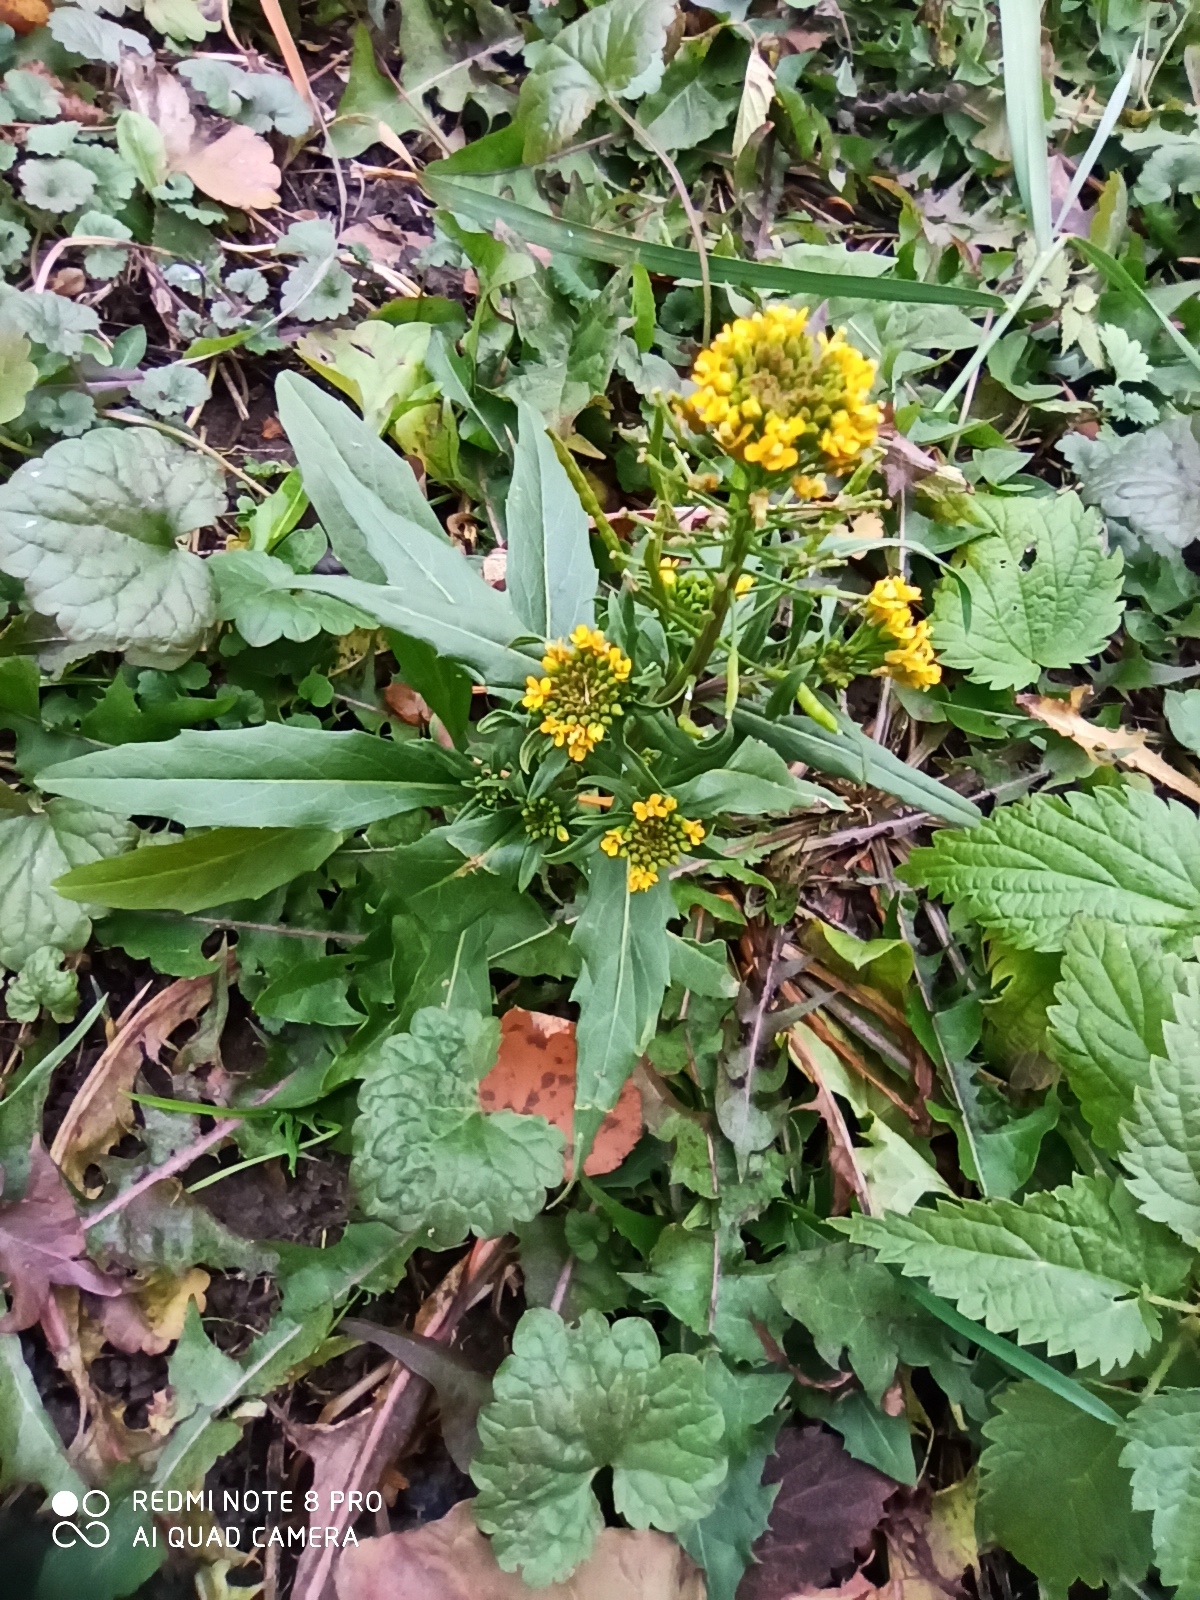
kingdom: Plantae
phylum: Tracheophyta
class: Magnoliopsida
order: Brassicales
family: Brassicaceae
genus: Erysimum
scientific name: Erysimum cheiranthoides
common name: Treacle mustard
